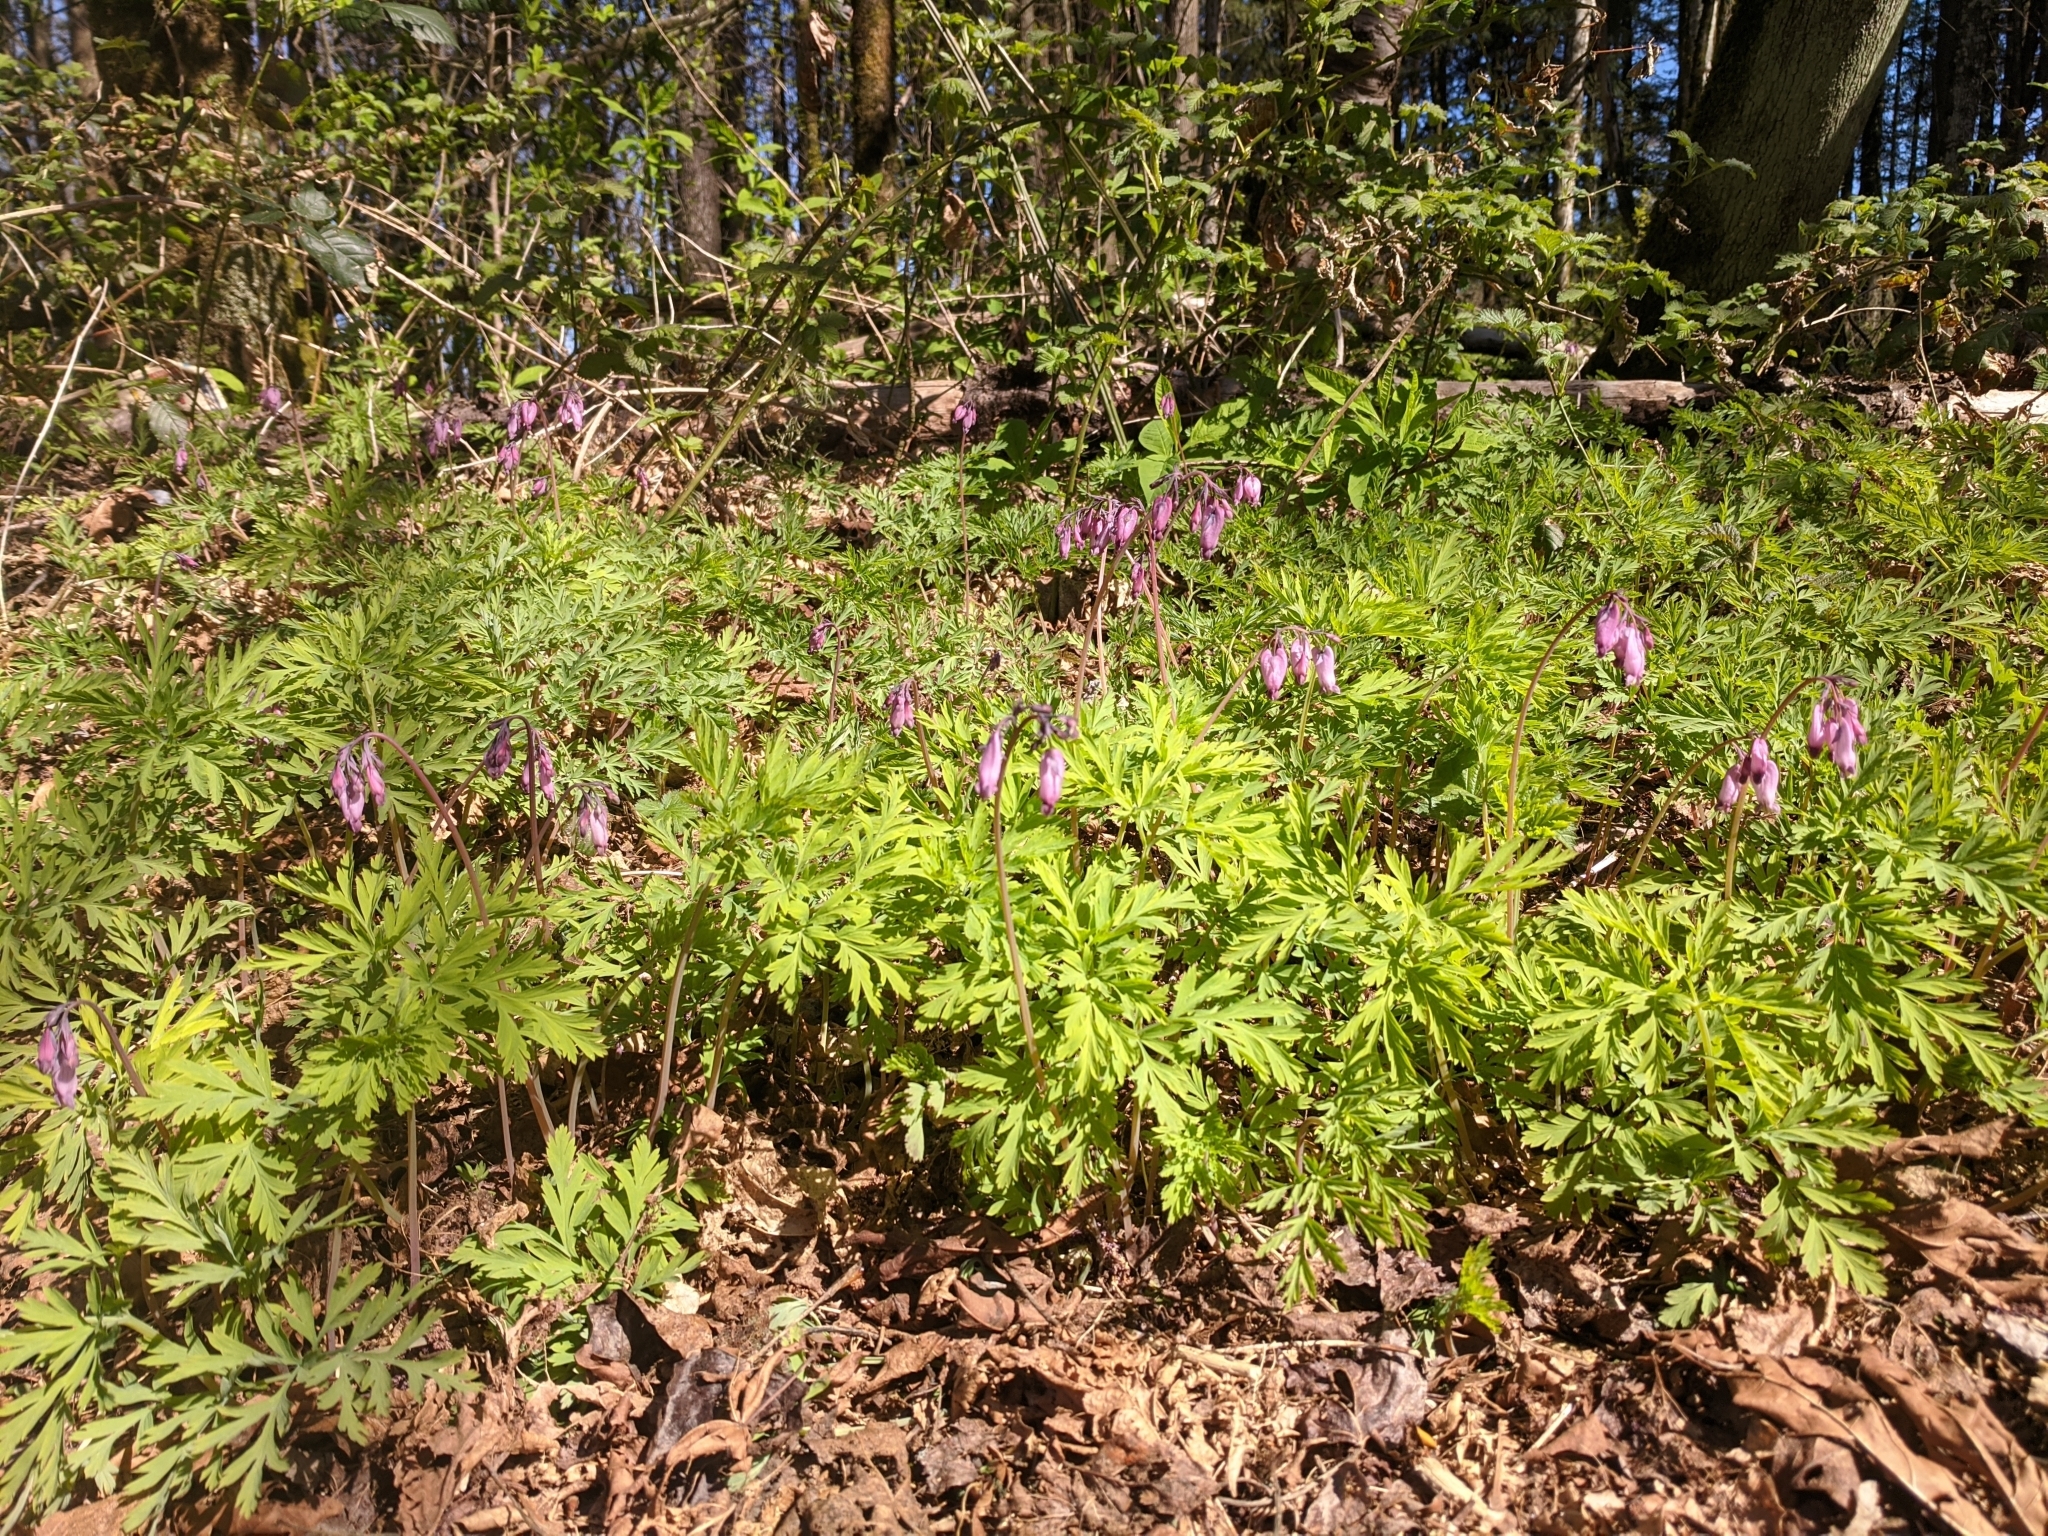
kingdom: Plantae
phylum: Tracheophyta
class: Magnoliopsida
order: Ranunculales
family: Papaveraceae
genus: Dicentra
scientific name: Dicentra formosa
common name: Bleeding-heart
